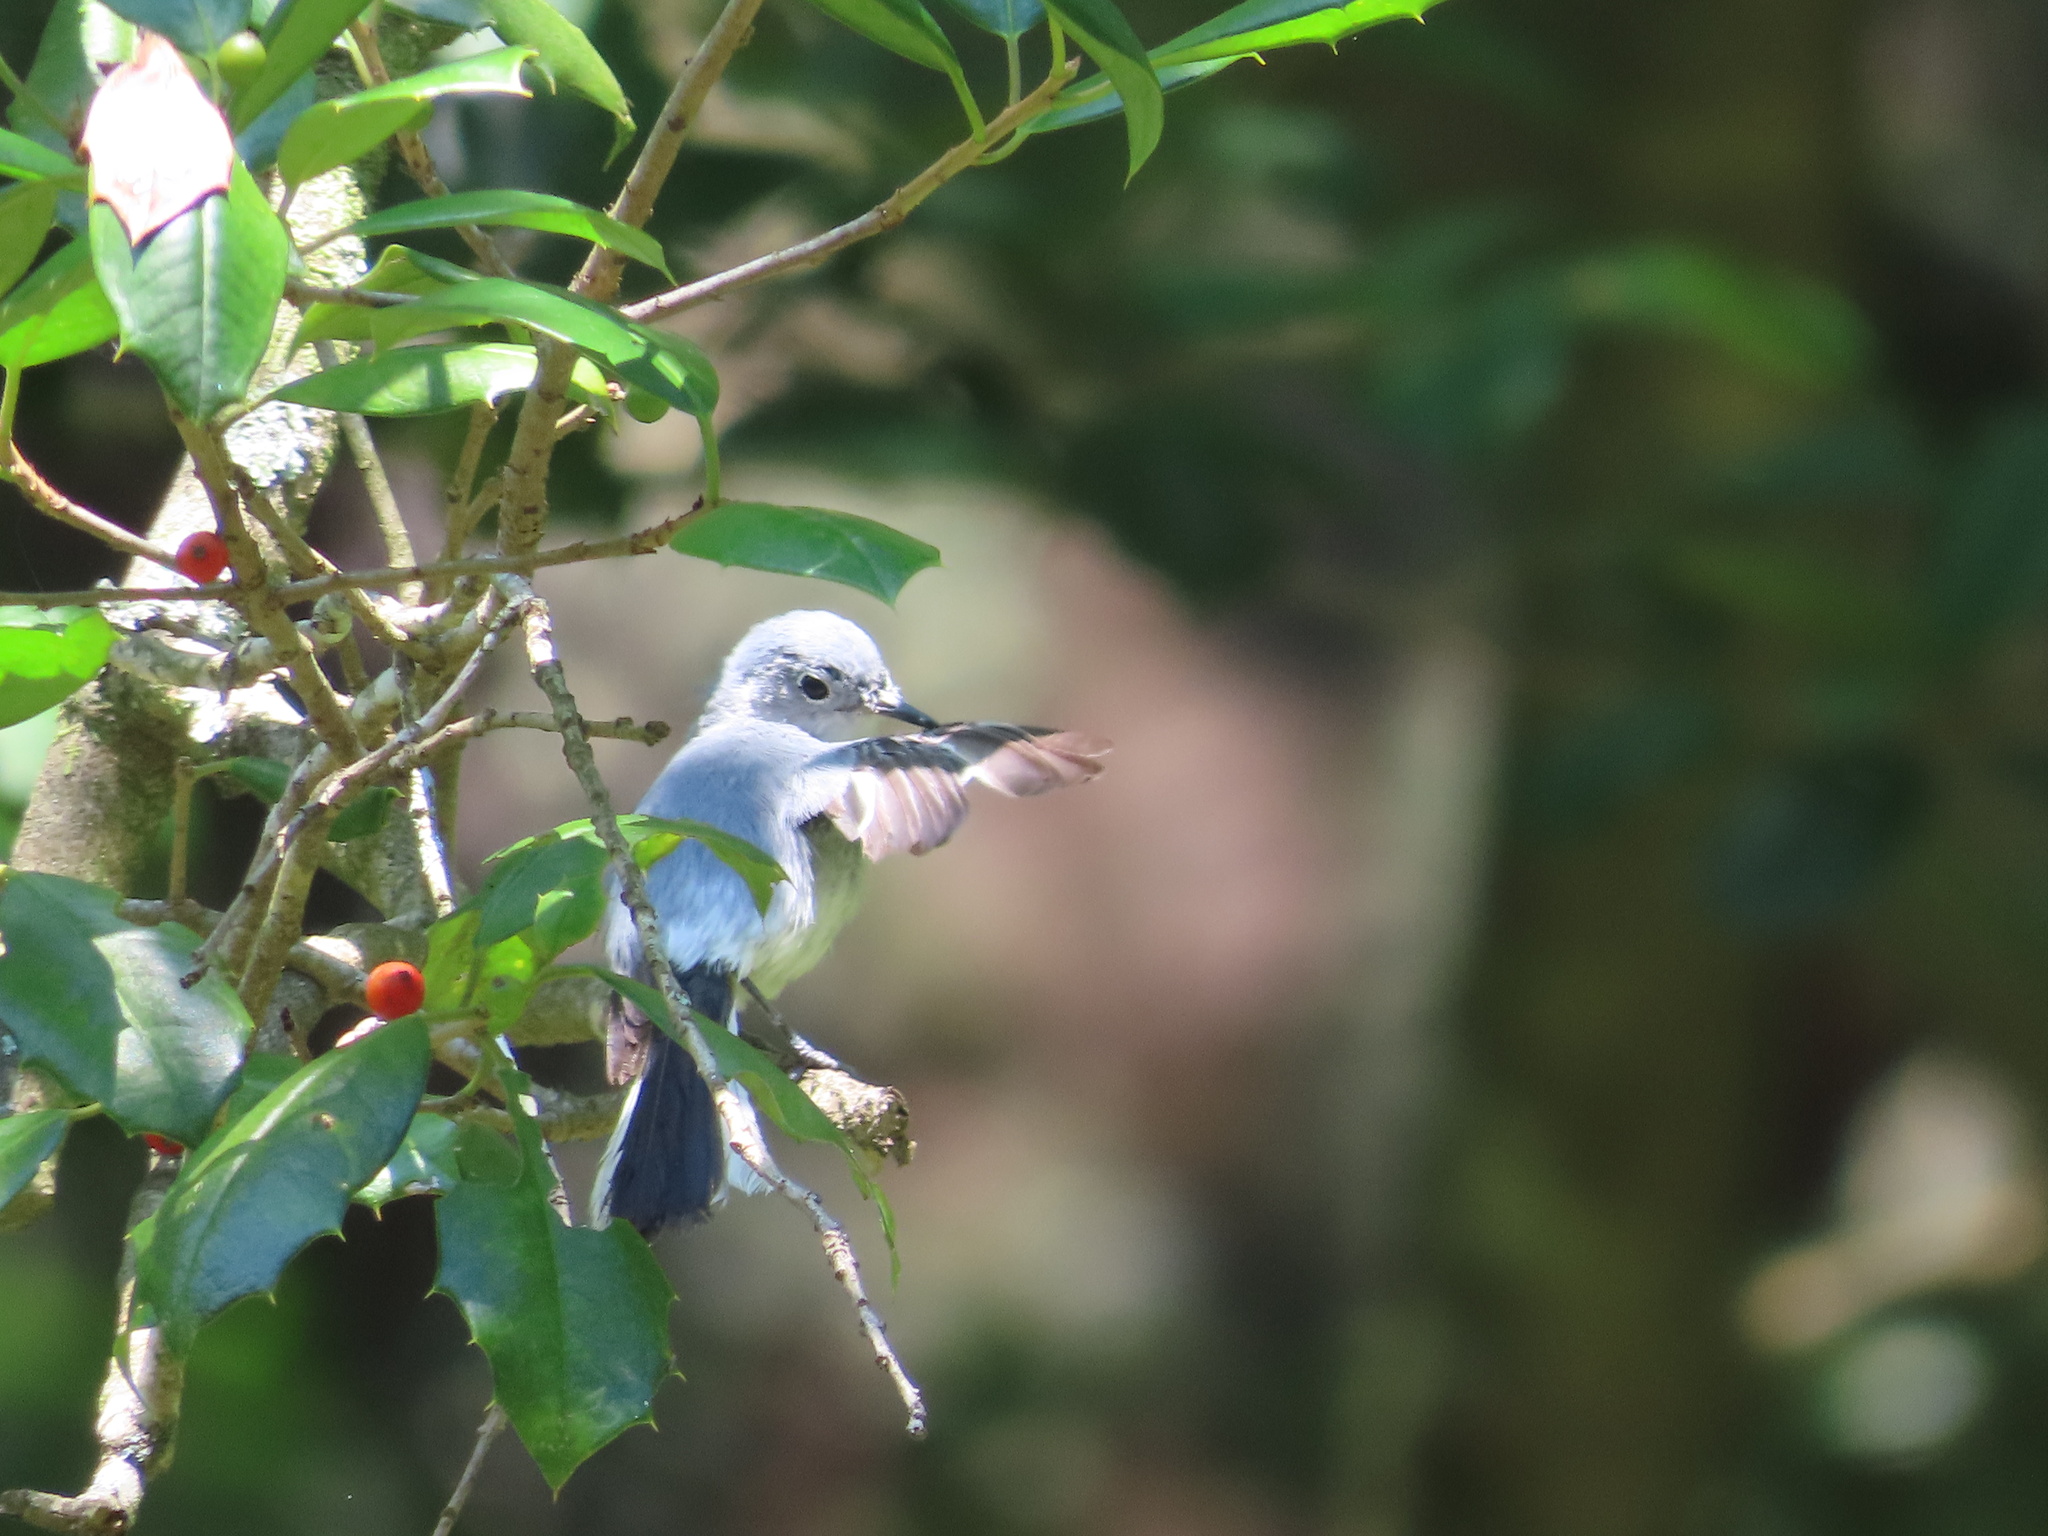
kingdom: Animalia
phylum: Chordata
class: Aves
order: Passeriformes
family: Polioptilidae
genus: Polioptila
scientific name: Polioptila caerulea
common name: Blue-gray gnatcatcher
